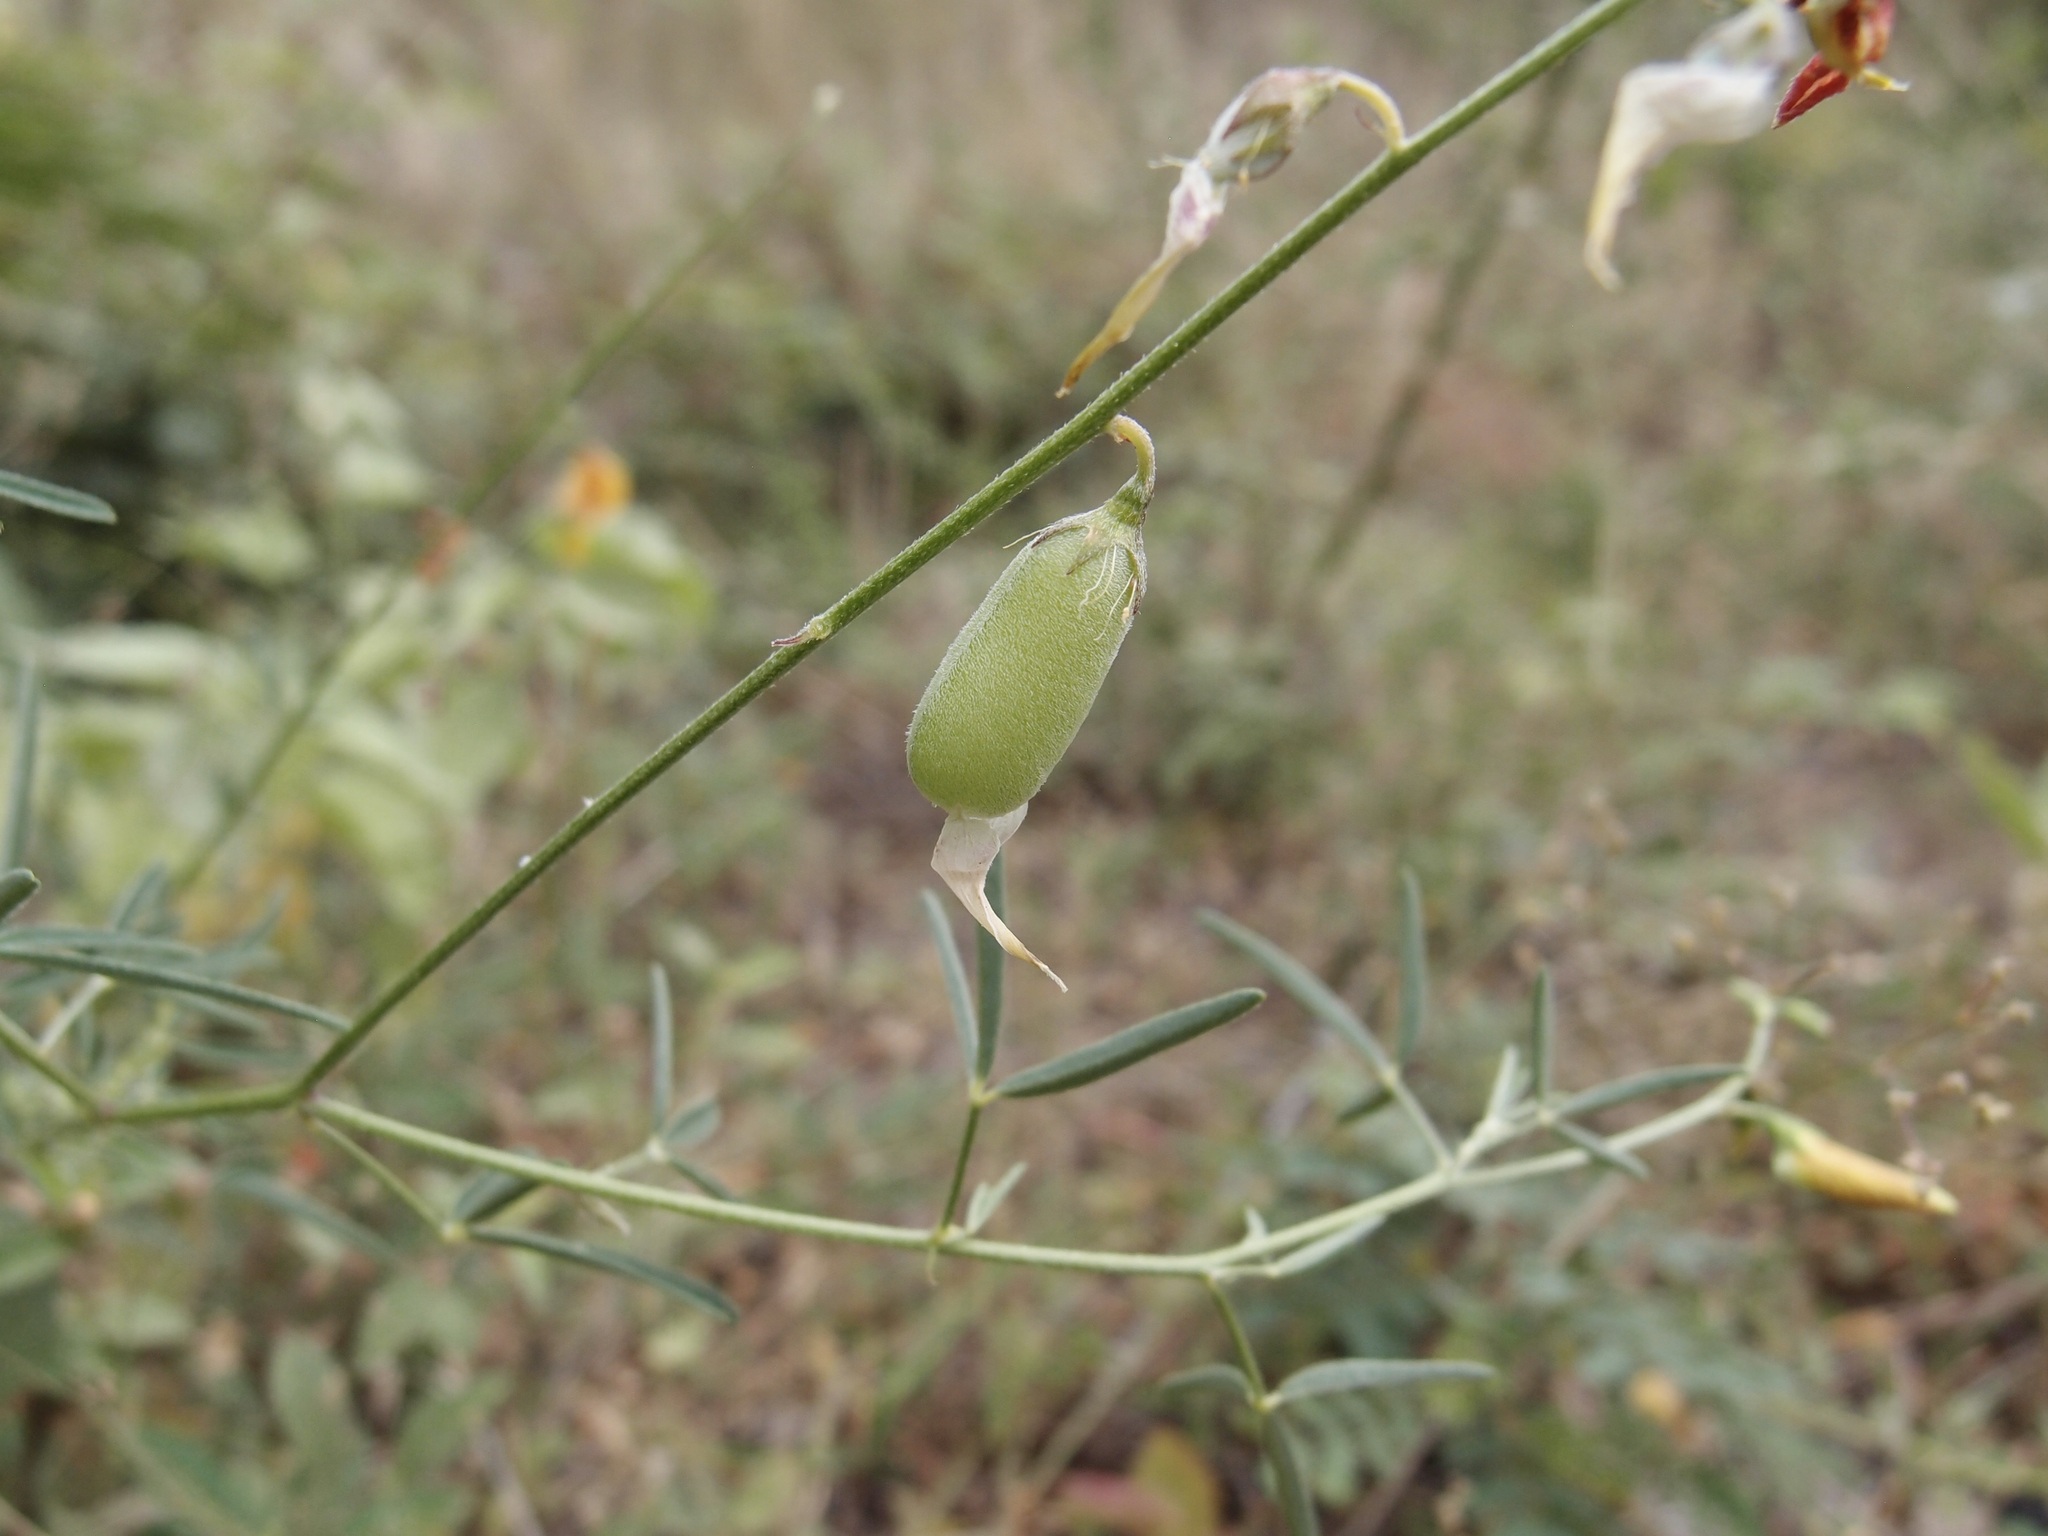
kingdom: Plantae
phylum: Tracheophyta
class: Magnoliopsida
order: Fabales
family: Fabaceae
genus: Crotalaria
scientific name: Crotalaria pumila
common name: Low rattlebox
